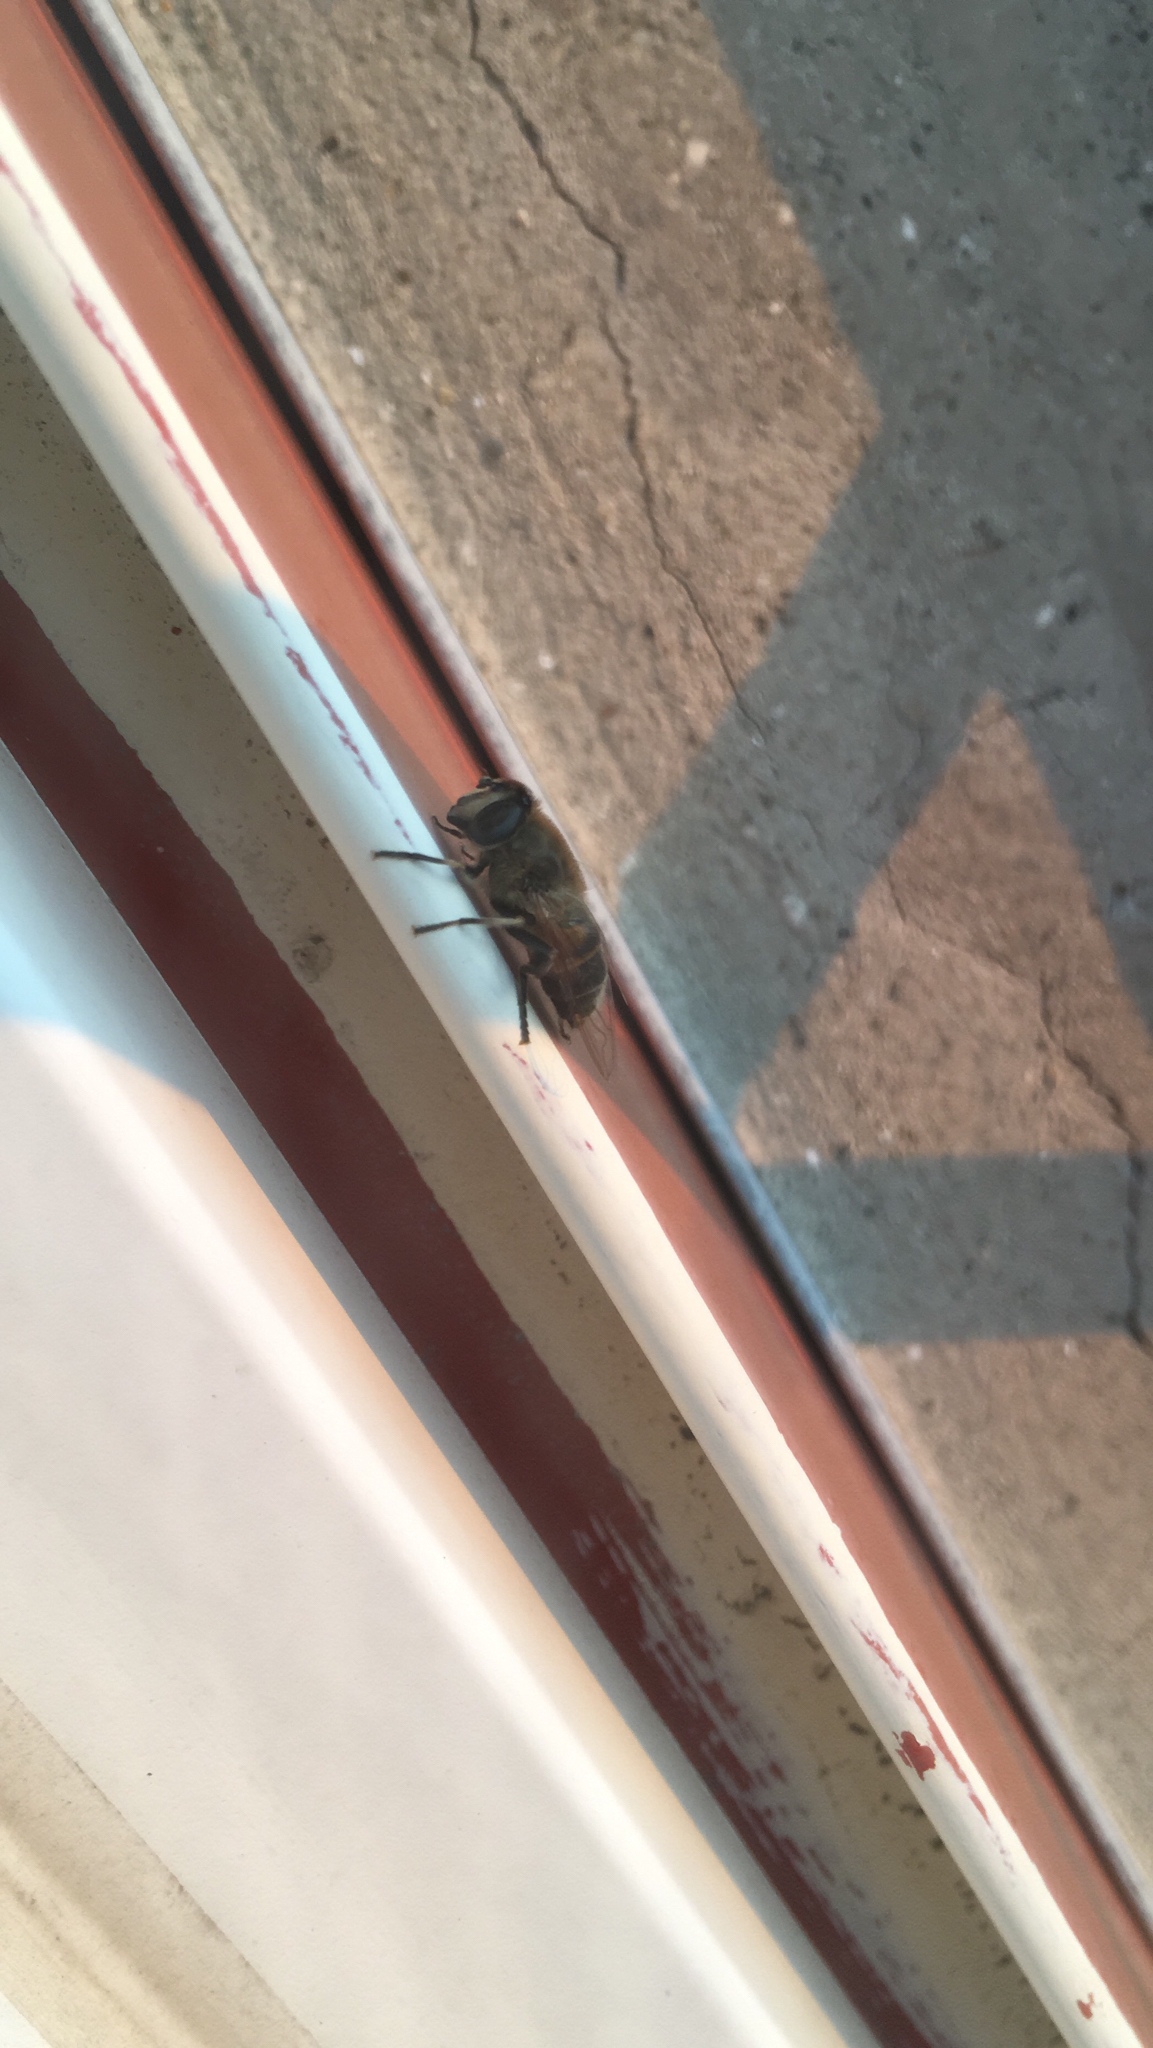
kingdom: Animalia
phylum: Arthropoda
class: Insecta
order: Diptera
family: Syrphidae
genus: Eristalis
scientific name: Eristalis tenax
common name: Drone fly
